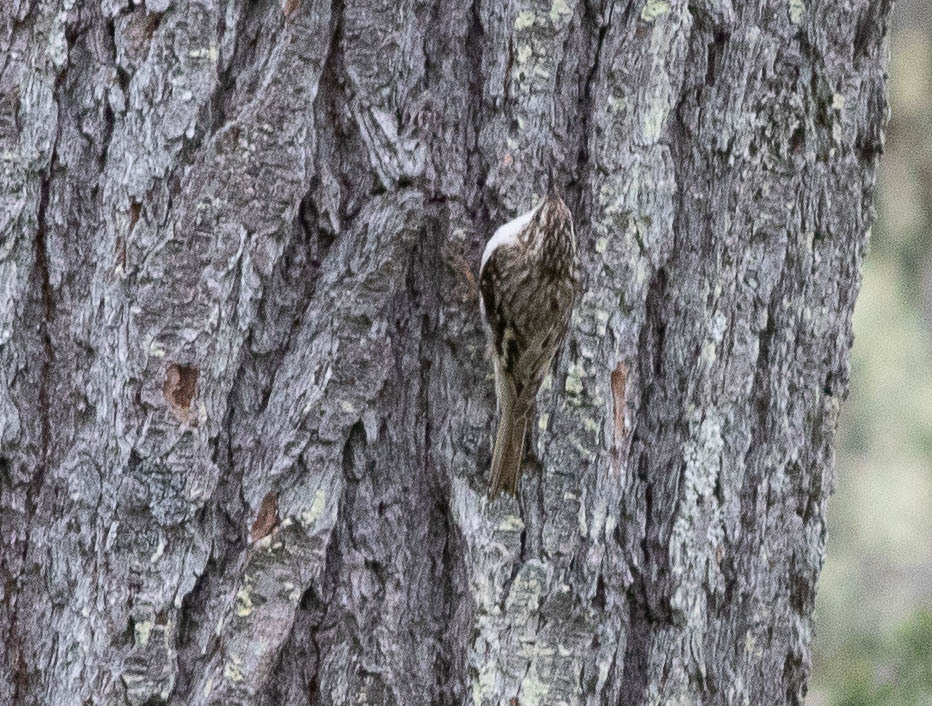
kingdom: Animalia
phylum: Chordata
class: Aves
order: Passeriformes
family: Certhiidae
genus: Certhia
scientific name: Certhia americana
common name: Brown creeper
